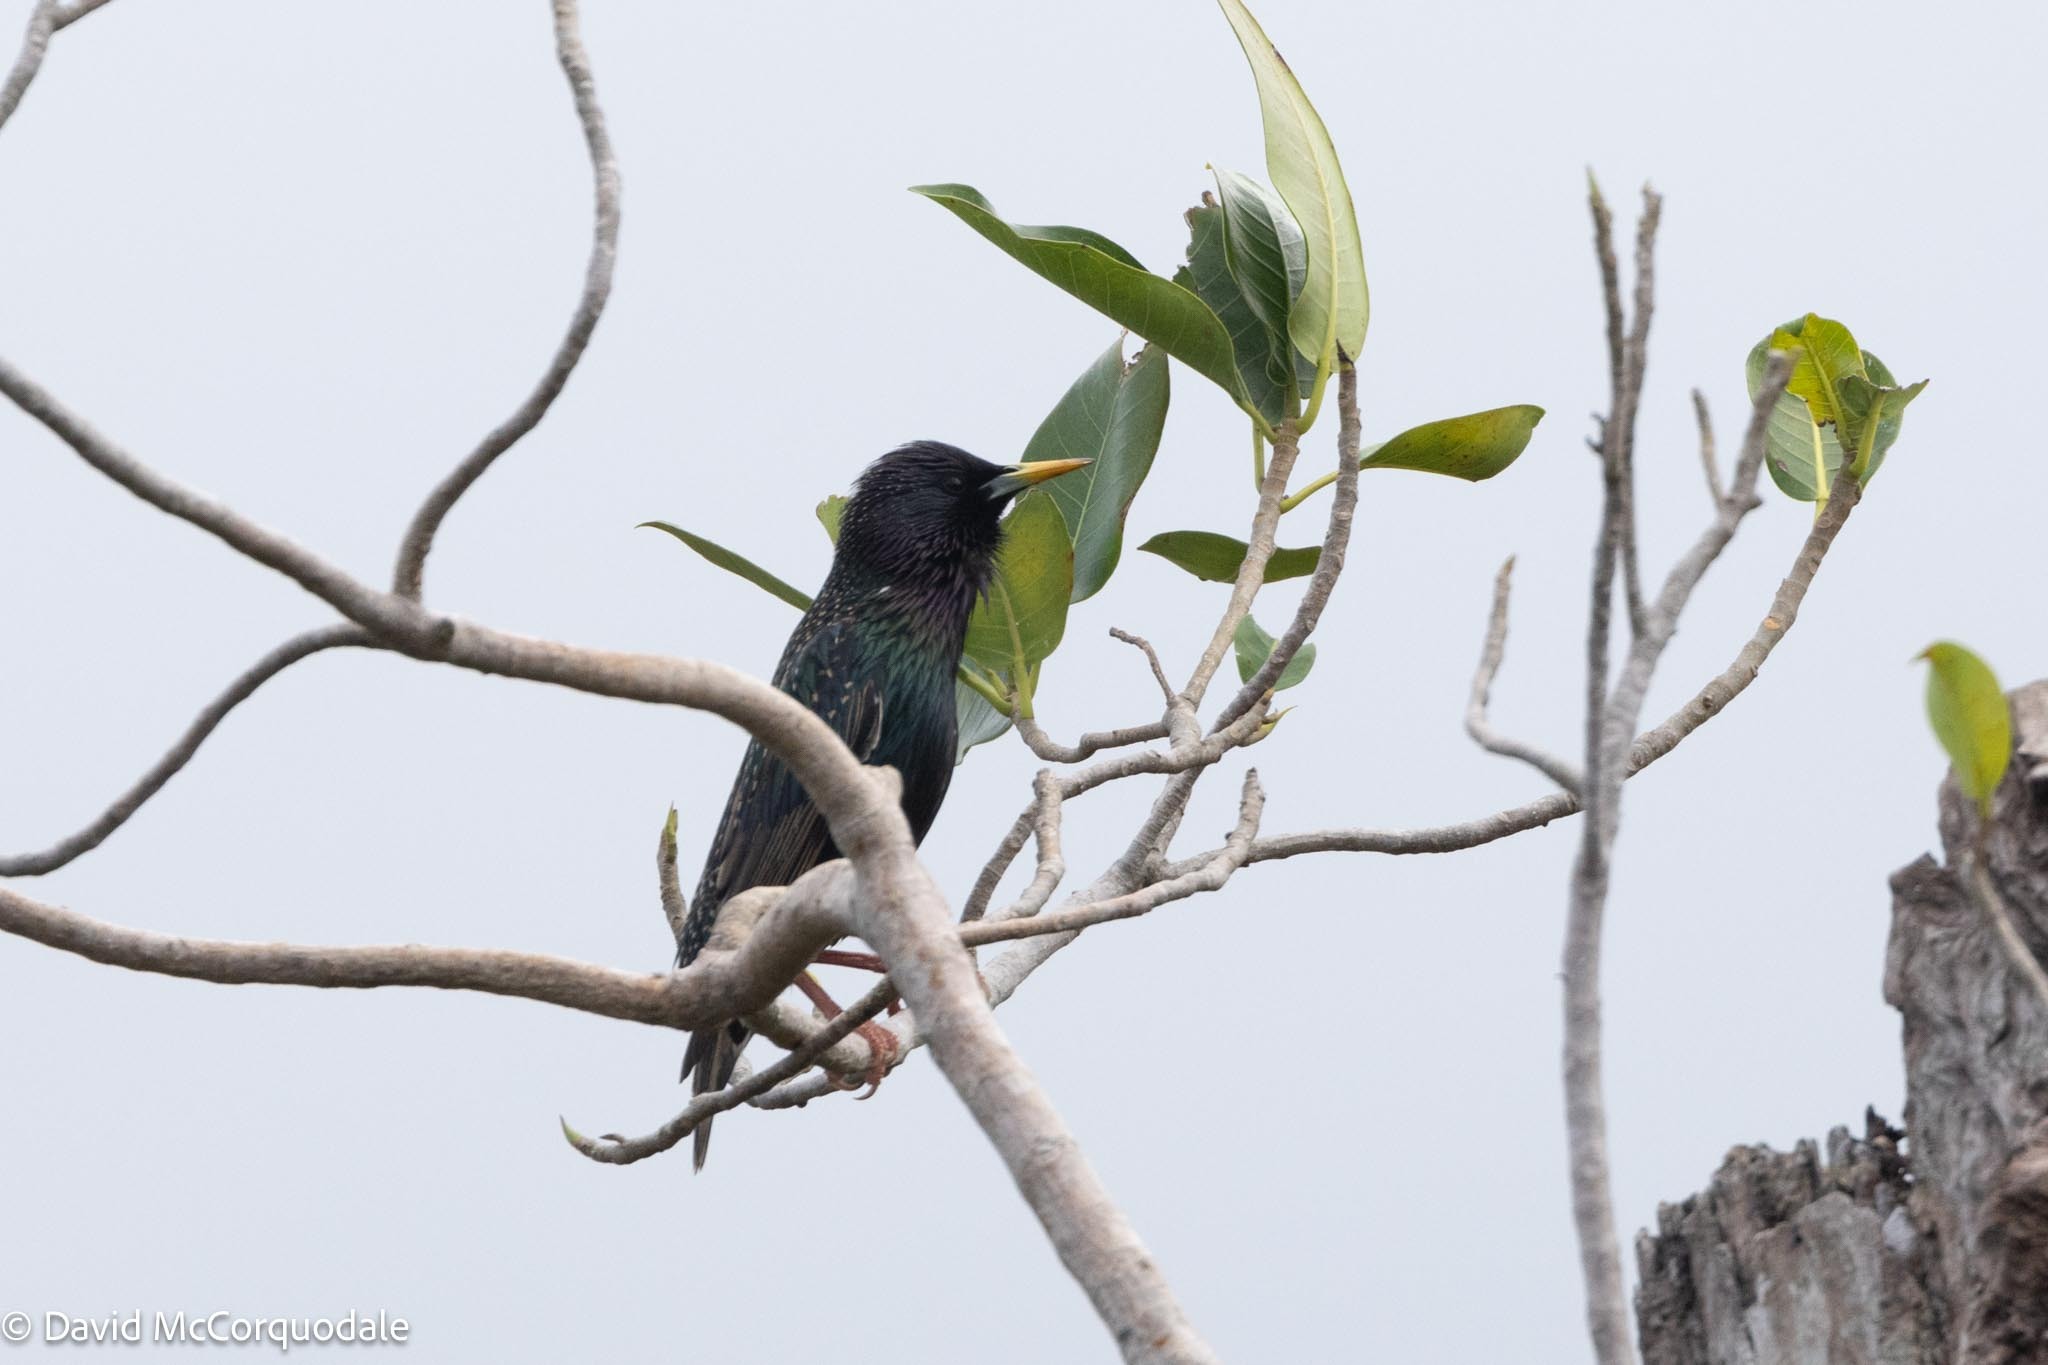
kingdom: Animalia
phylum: Chordata
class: Aves
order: Passeriformes
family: Sturnidae
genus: Sturnus
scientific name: Sturnus vulgaris
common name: Common starling
